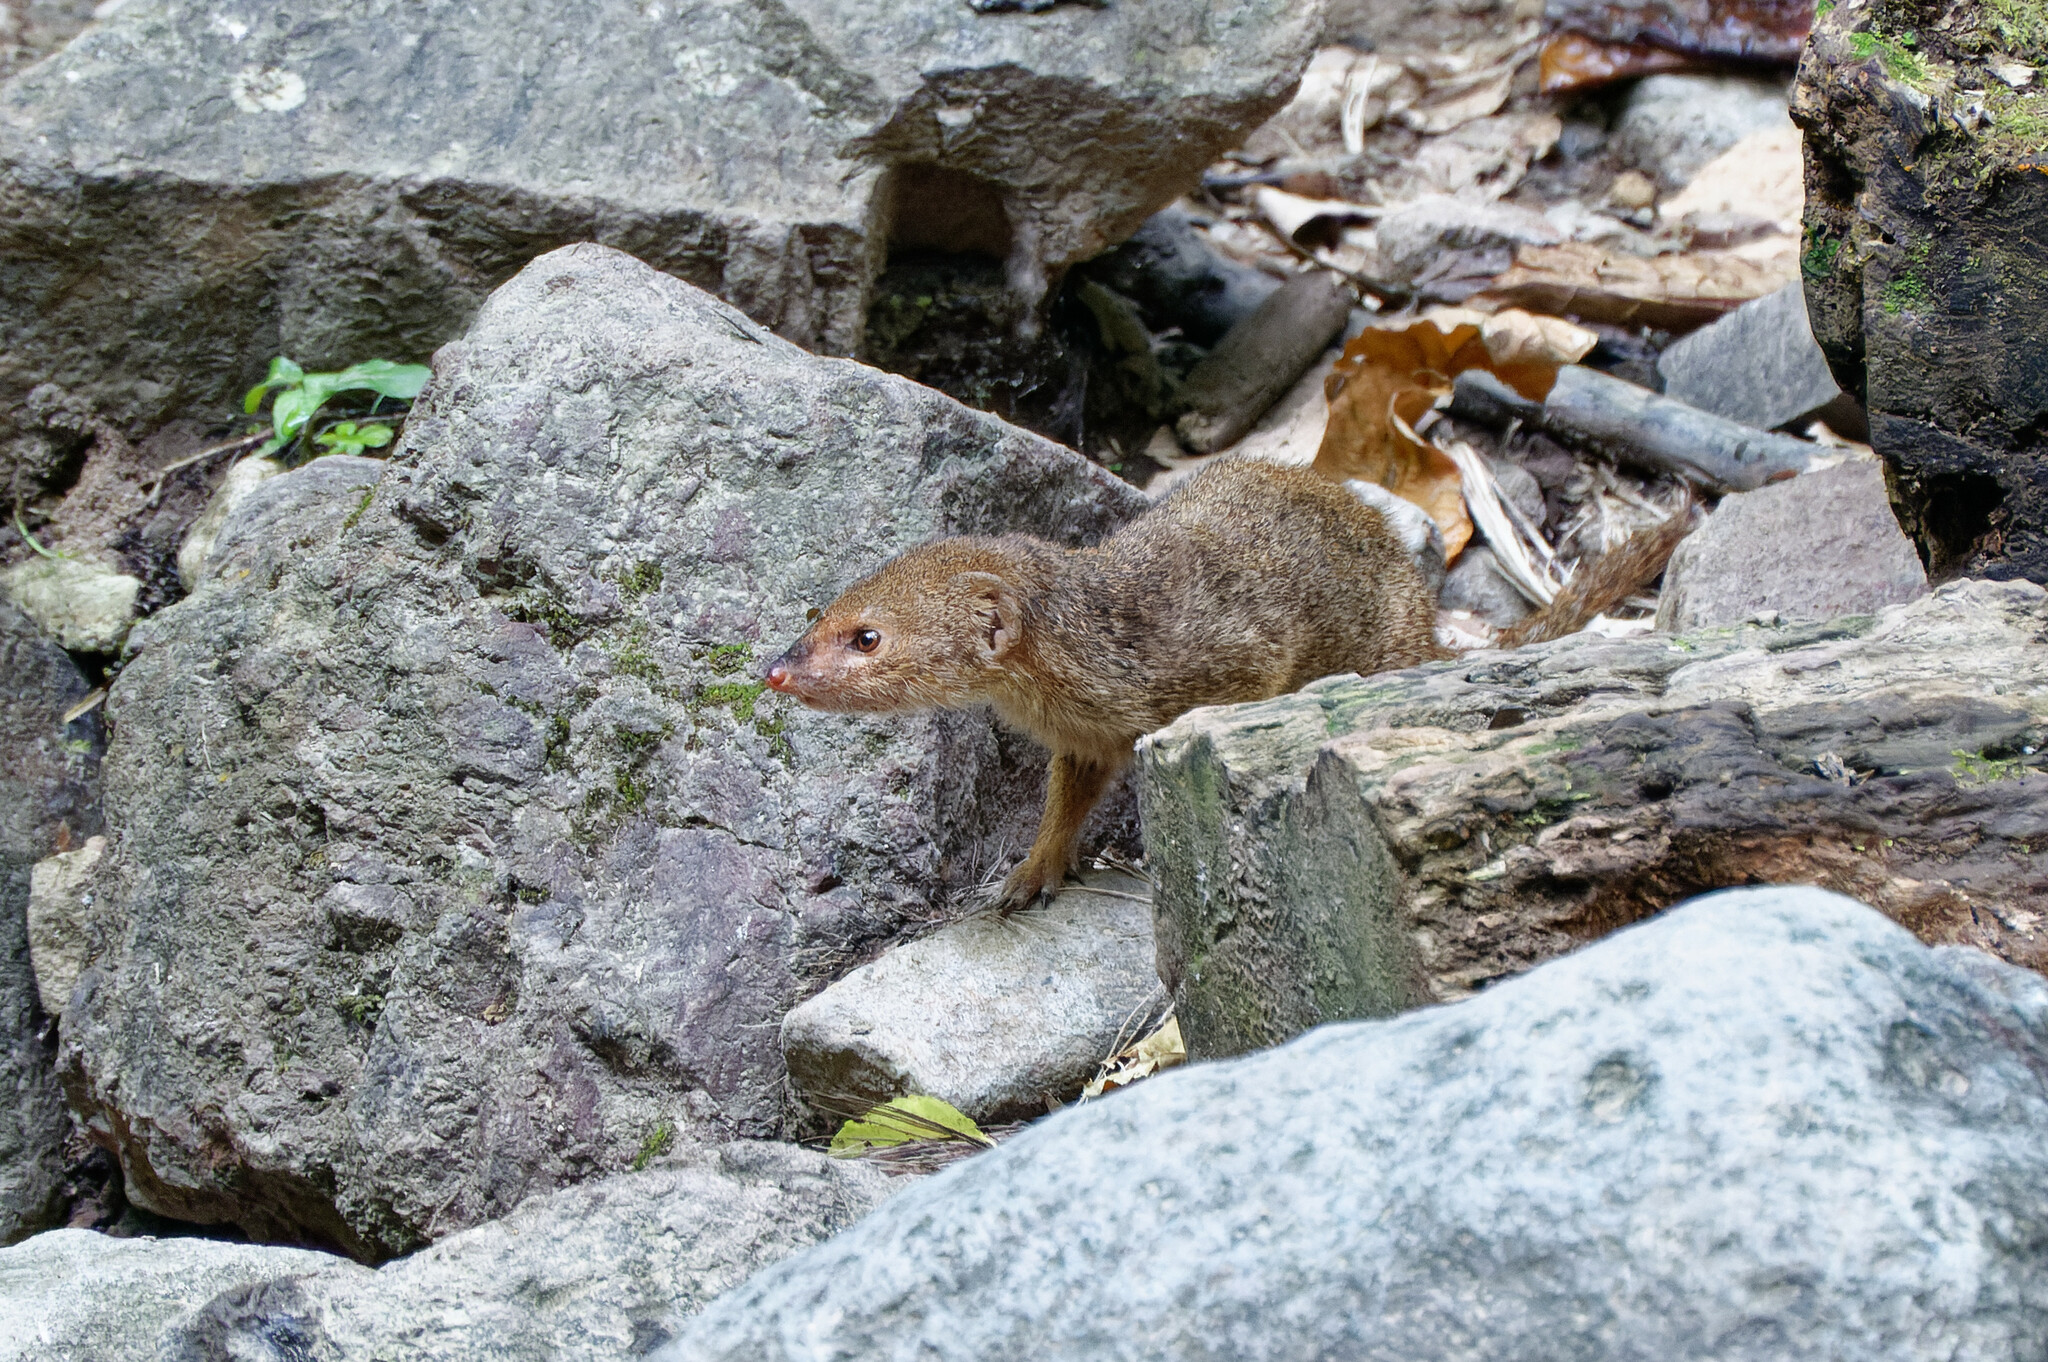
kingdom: Animalia
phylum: Chordata
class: Mammalia
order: Carnivora
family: Herpestidae
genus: Herpestes
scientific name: Herpestes javanicus
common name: Small asian mongoose
